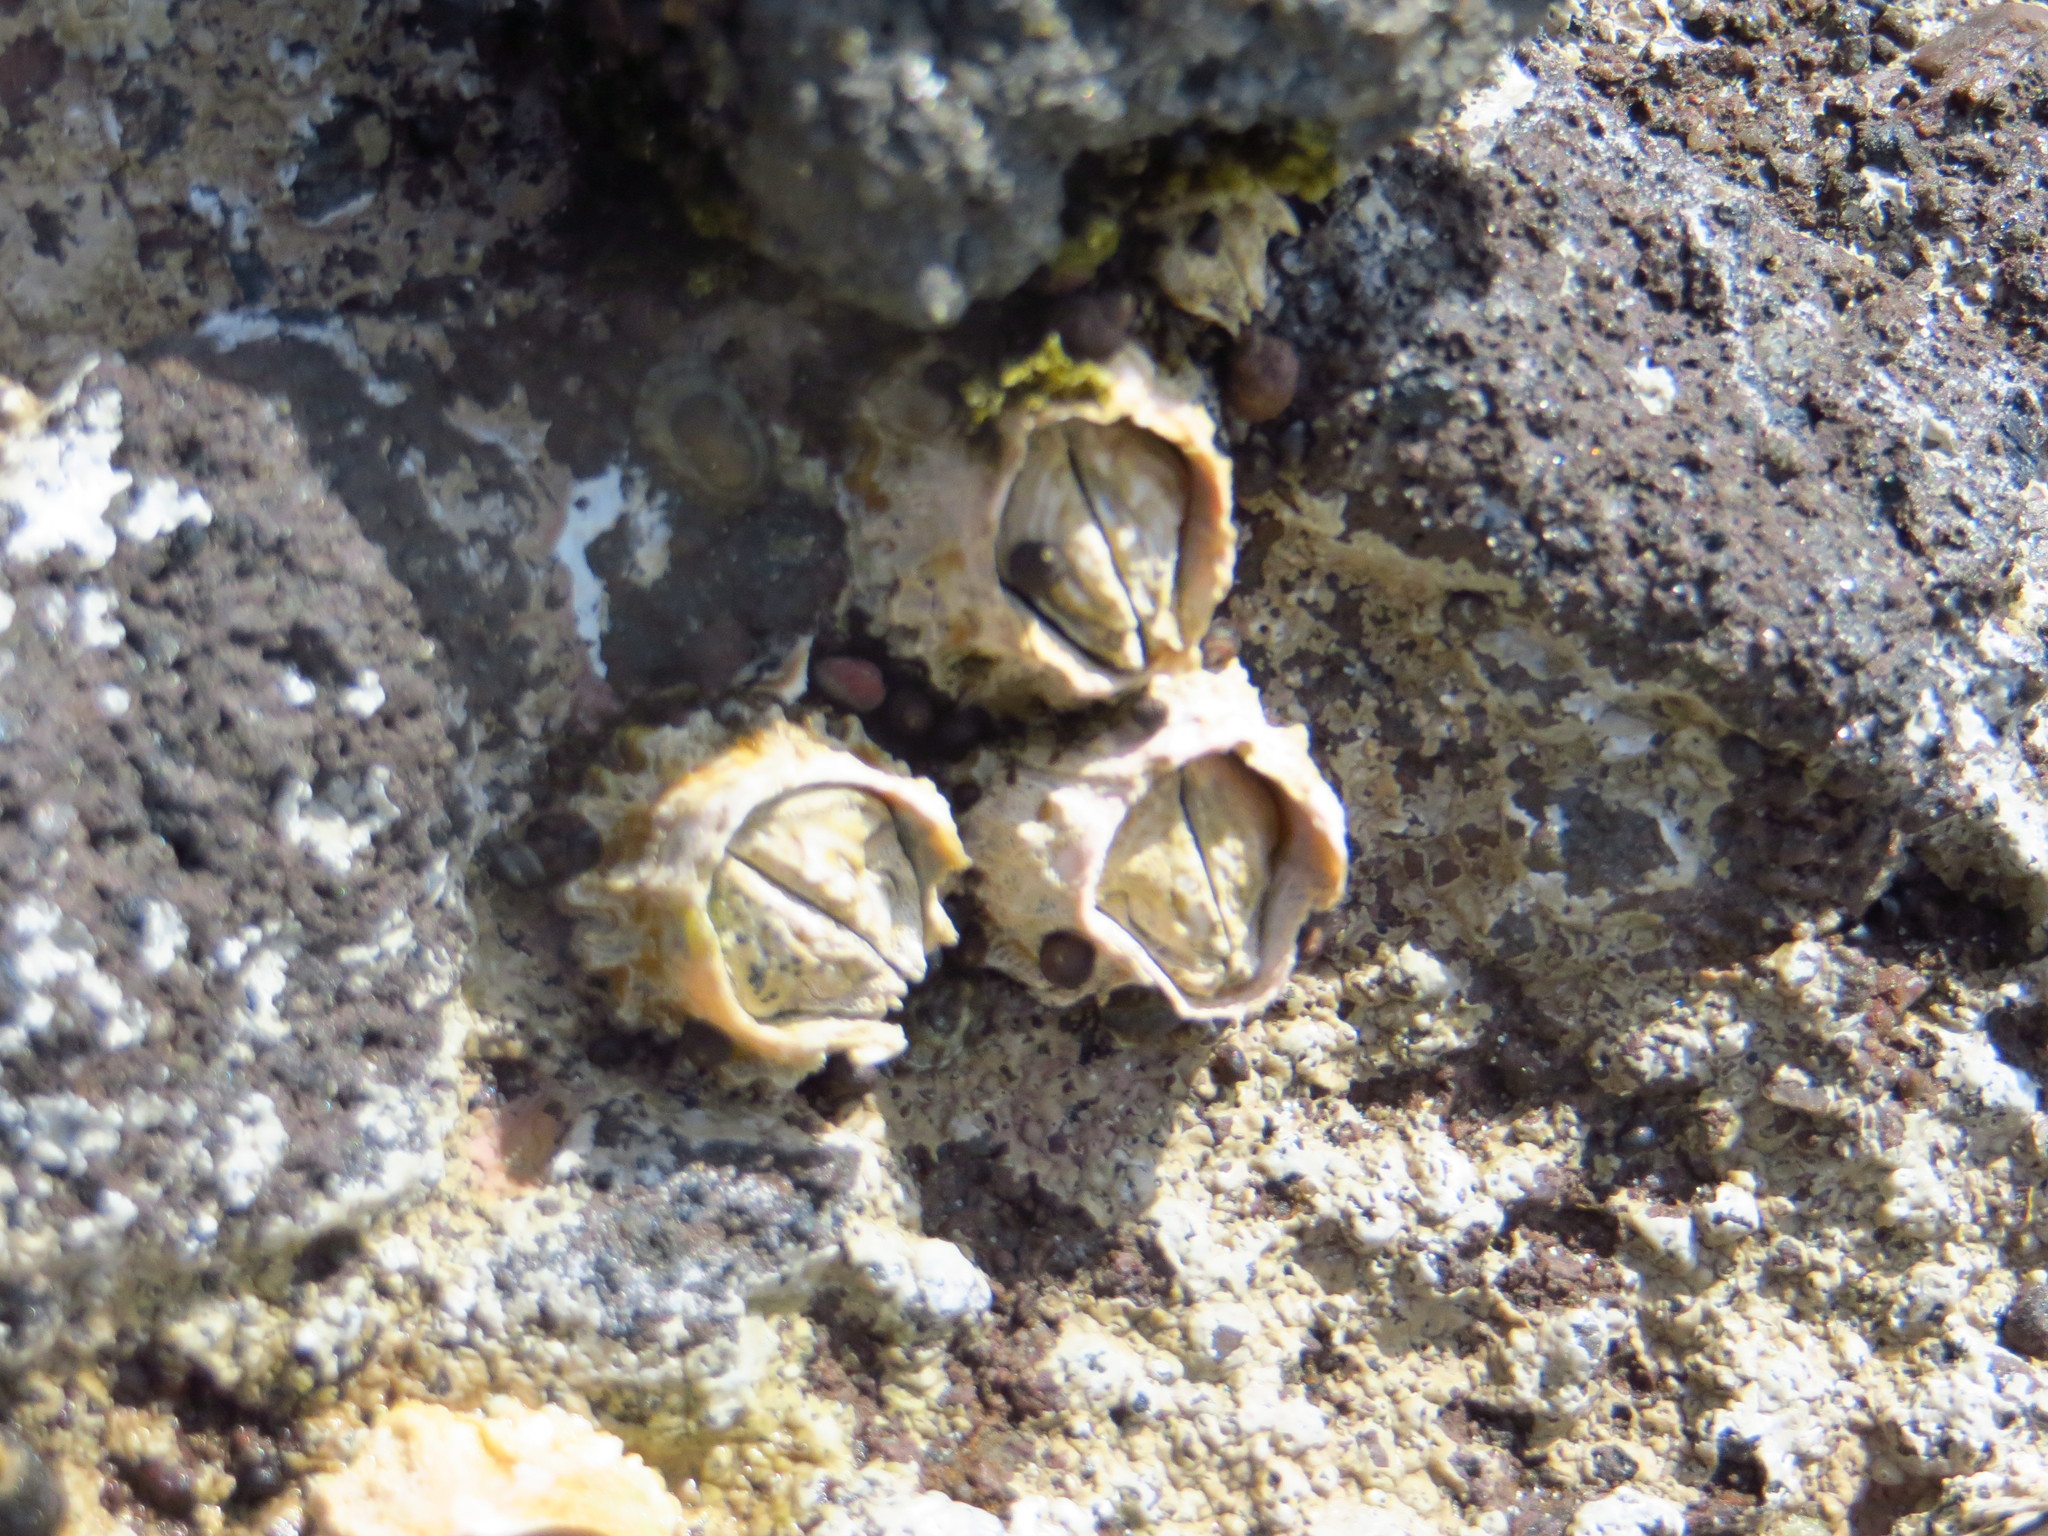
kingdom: Animalia
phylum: Arthropoda
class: Maxillopoda
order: Sessilia
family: Tetraclitidae
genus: Epopella
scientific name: Epopella plicata
